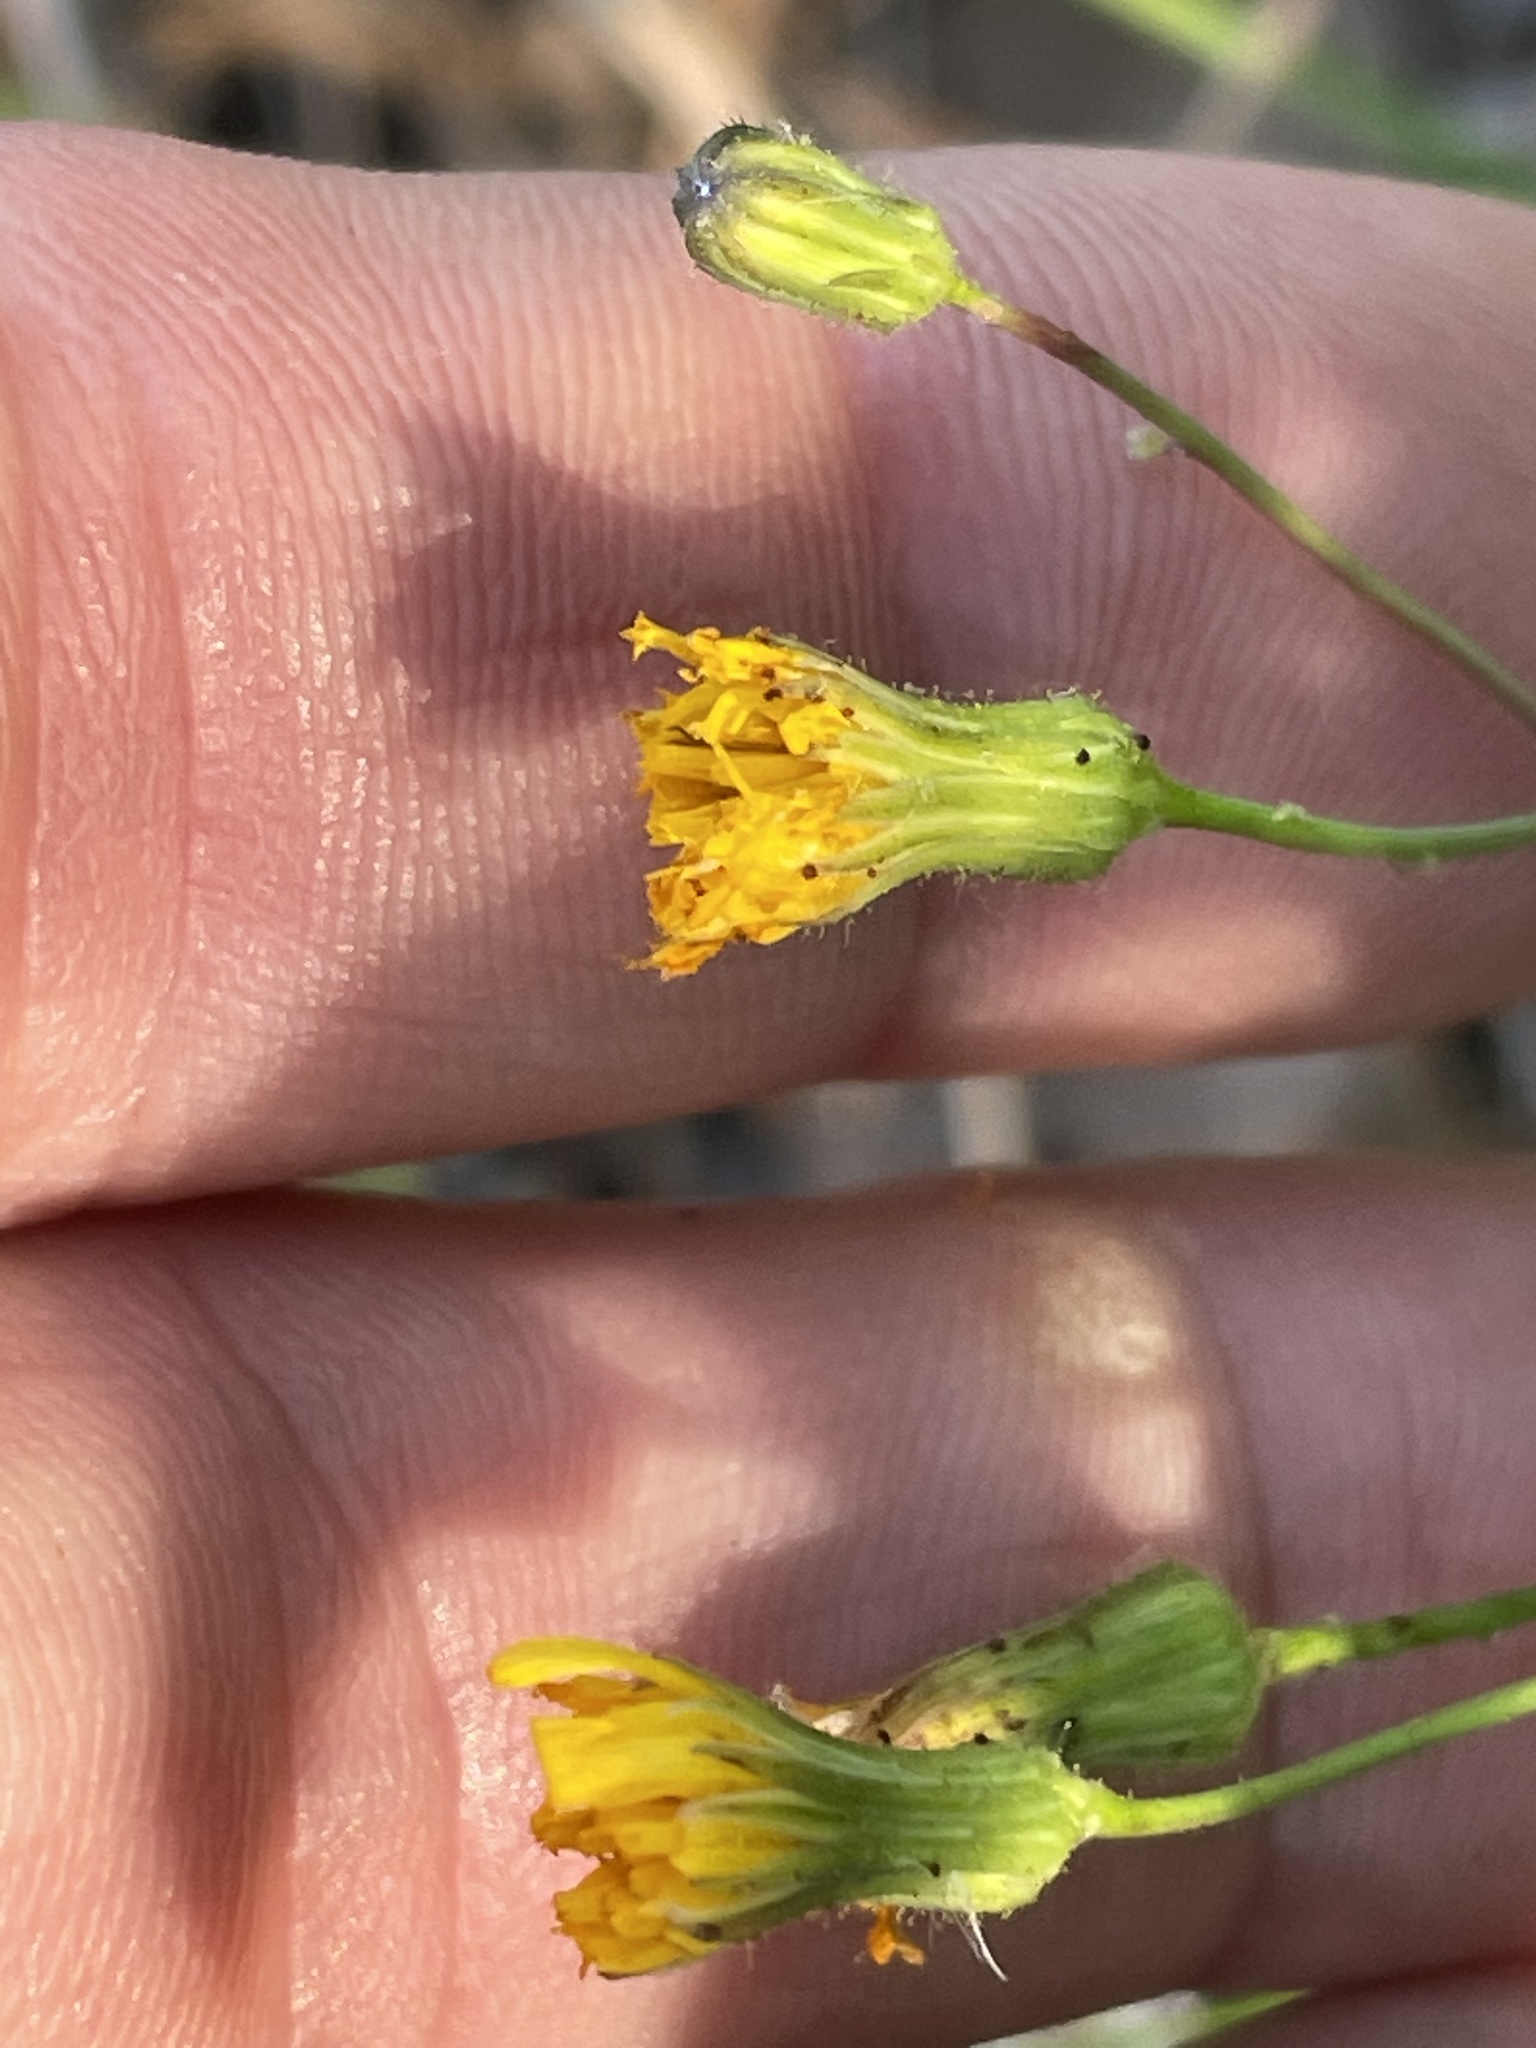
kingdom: Plantae
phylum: Tracheophyta
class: Magnoliopsida
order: Asterales
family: Asteraceae
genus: Hieracium
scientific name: Hieracium venosum
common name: Rattlesnake hawkweed
